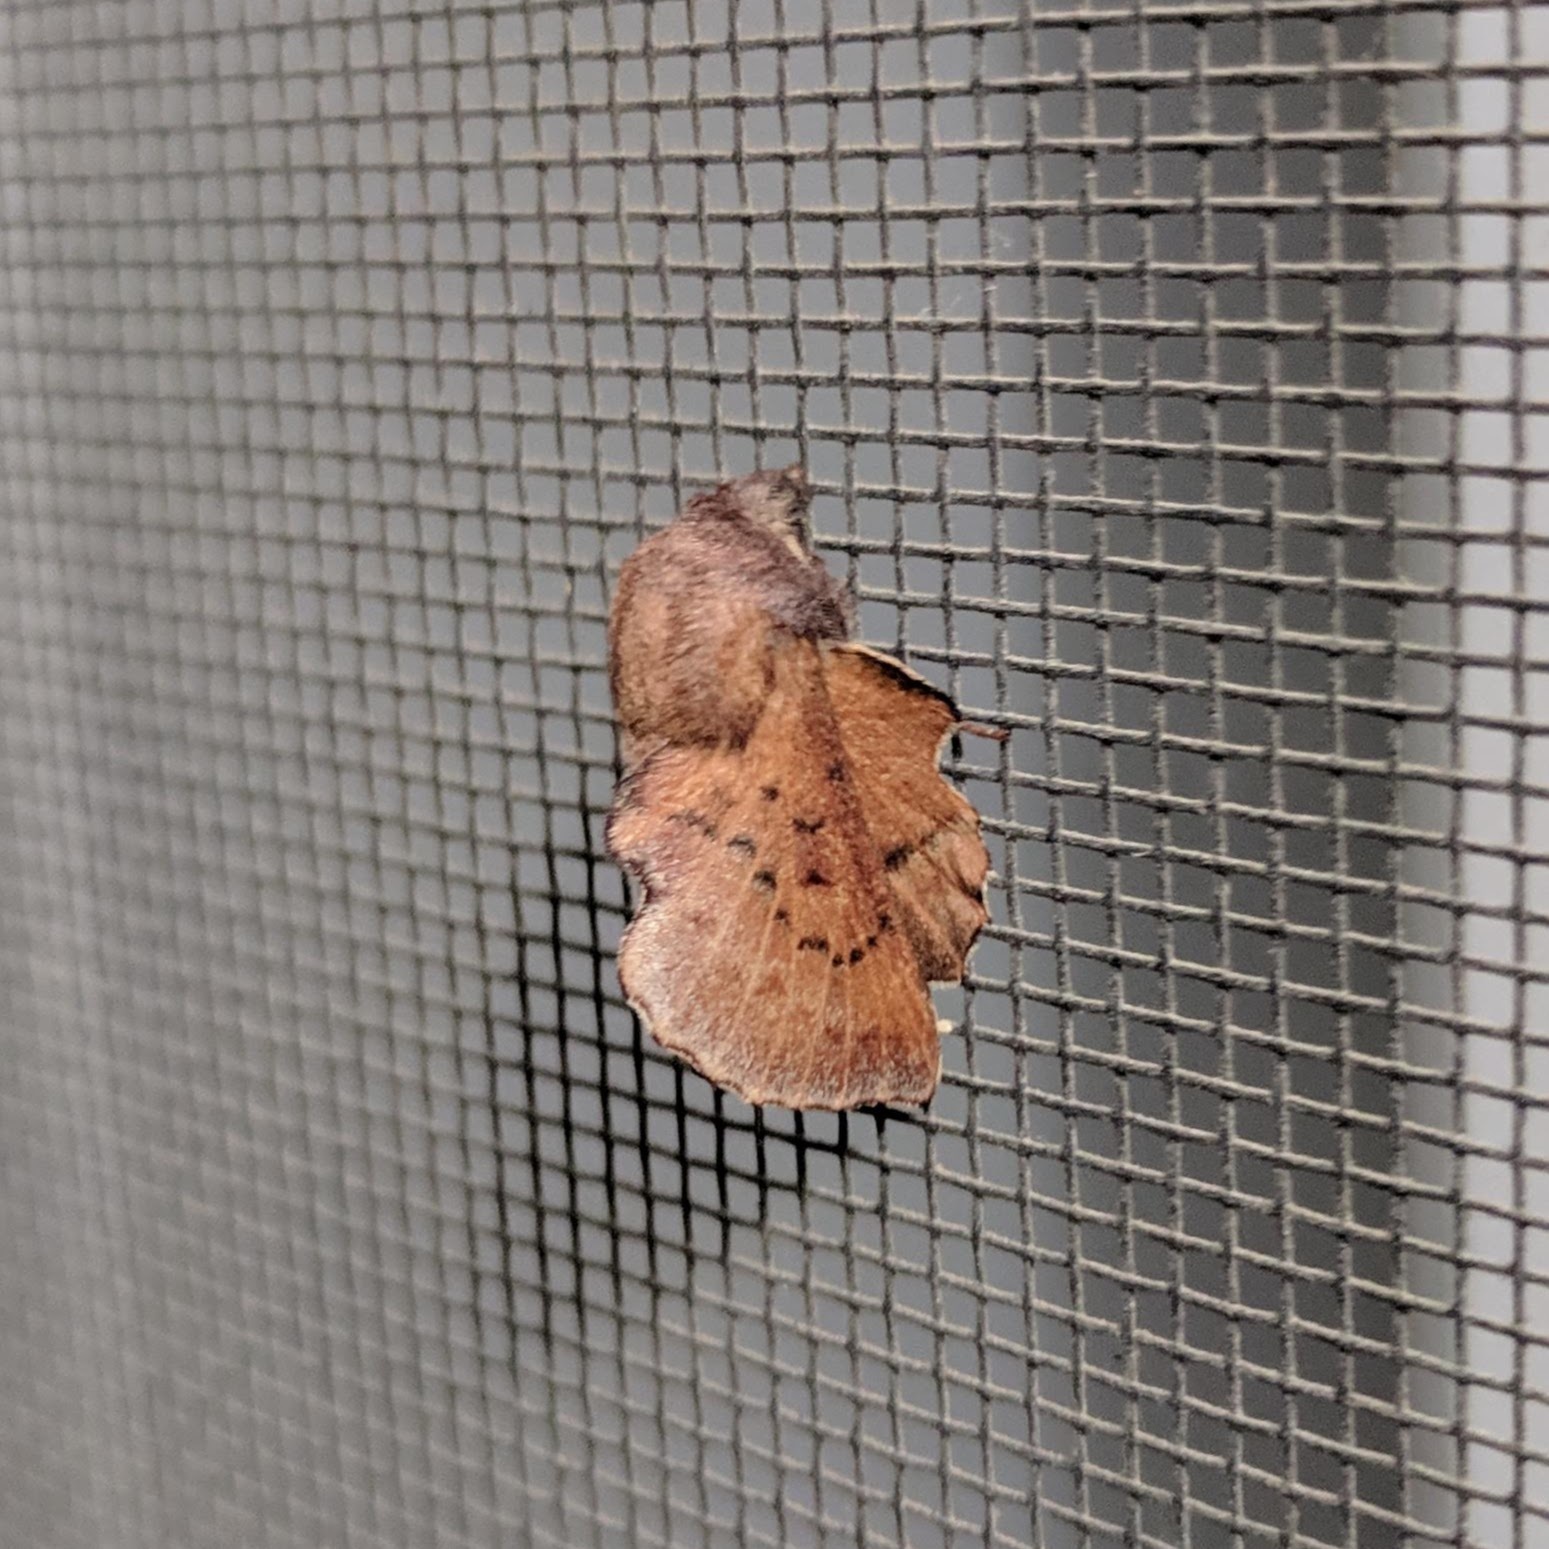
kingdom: Animalia
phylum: Arthropoda
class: Insecta
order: Lepidoptera
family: Lasiocampidae
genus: Phyllodesma
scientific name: Phyllodesma americana
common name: American lappet moth
